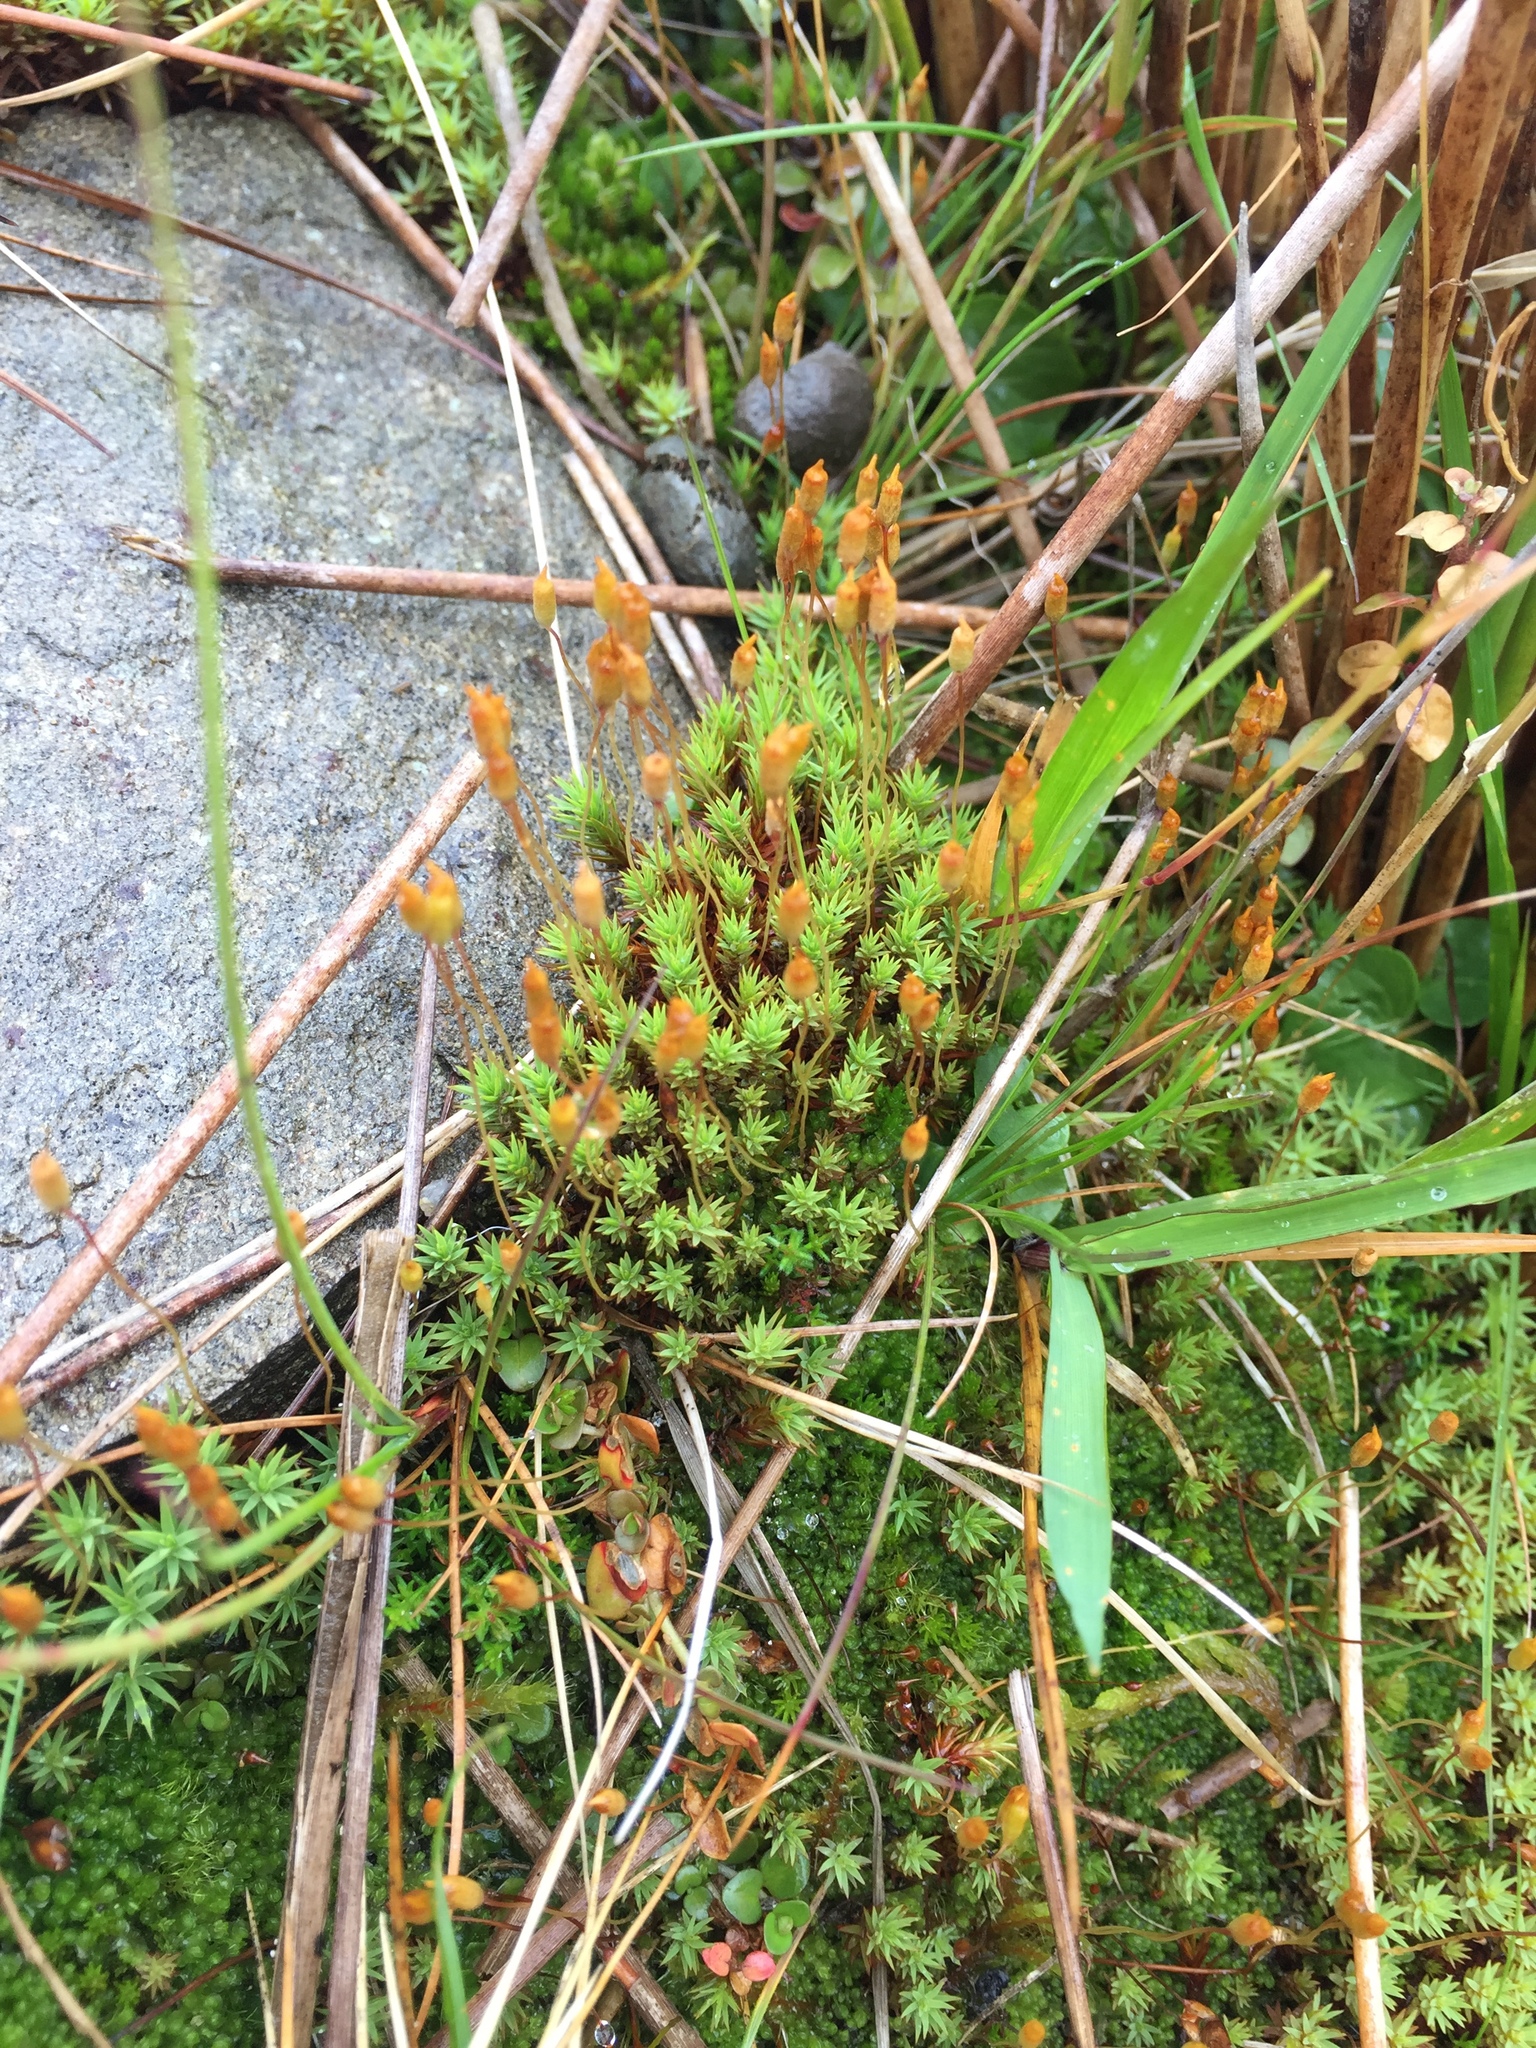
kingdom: Plantae
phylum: Bryophyta
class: Polytrichopsida
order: Polytrichales
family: Polytrichaceae
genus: Pogonatum
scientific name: Pogonatum urnigerum
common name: Urn hair moss
